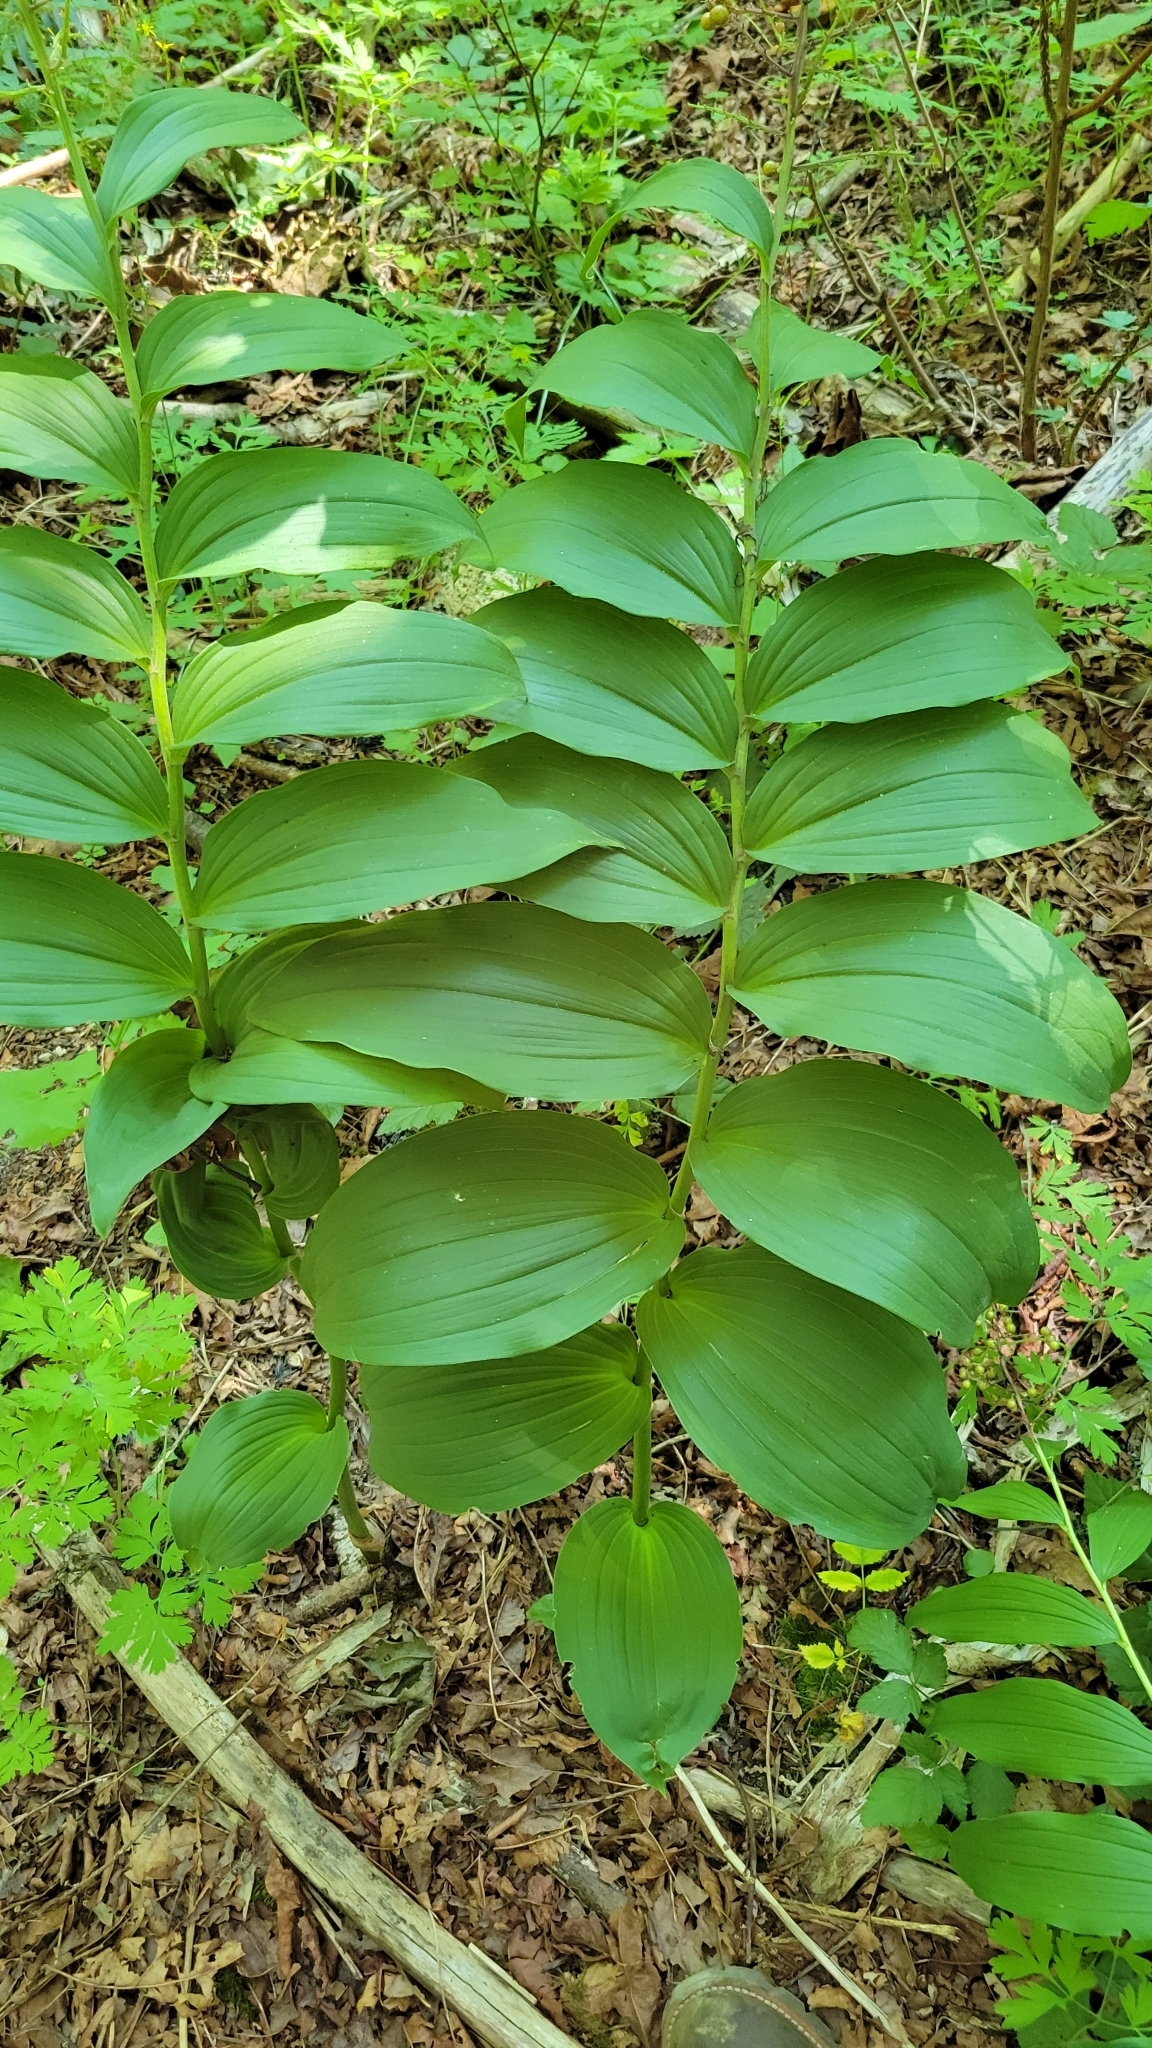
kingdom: Plantae
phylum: Tracheophyta
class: Liliopsida
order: Asparagales
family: Asparagaceae
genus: Maianthemum
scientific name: Maianthemum racemosum
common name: False spikenard
